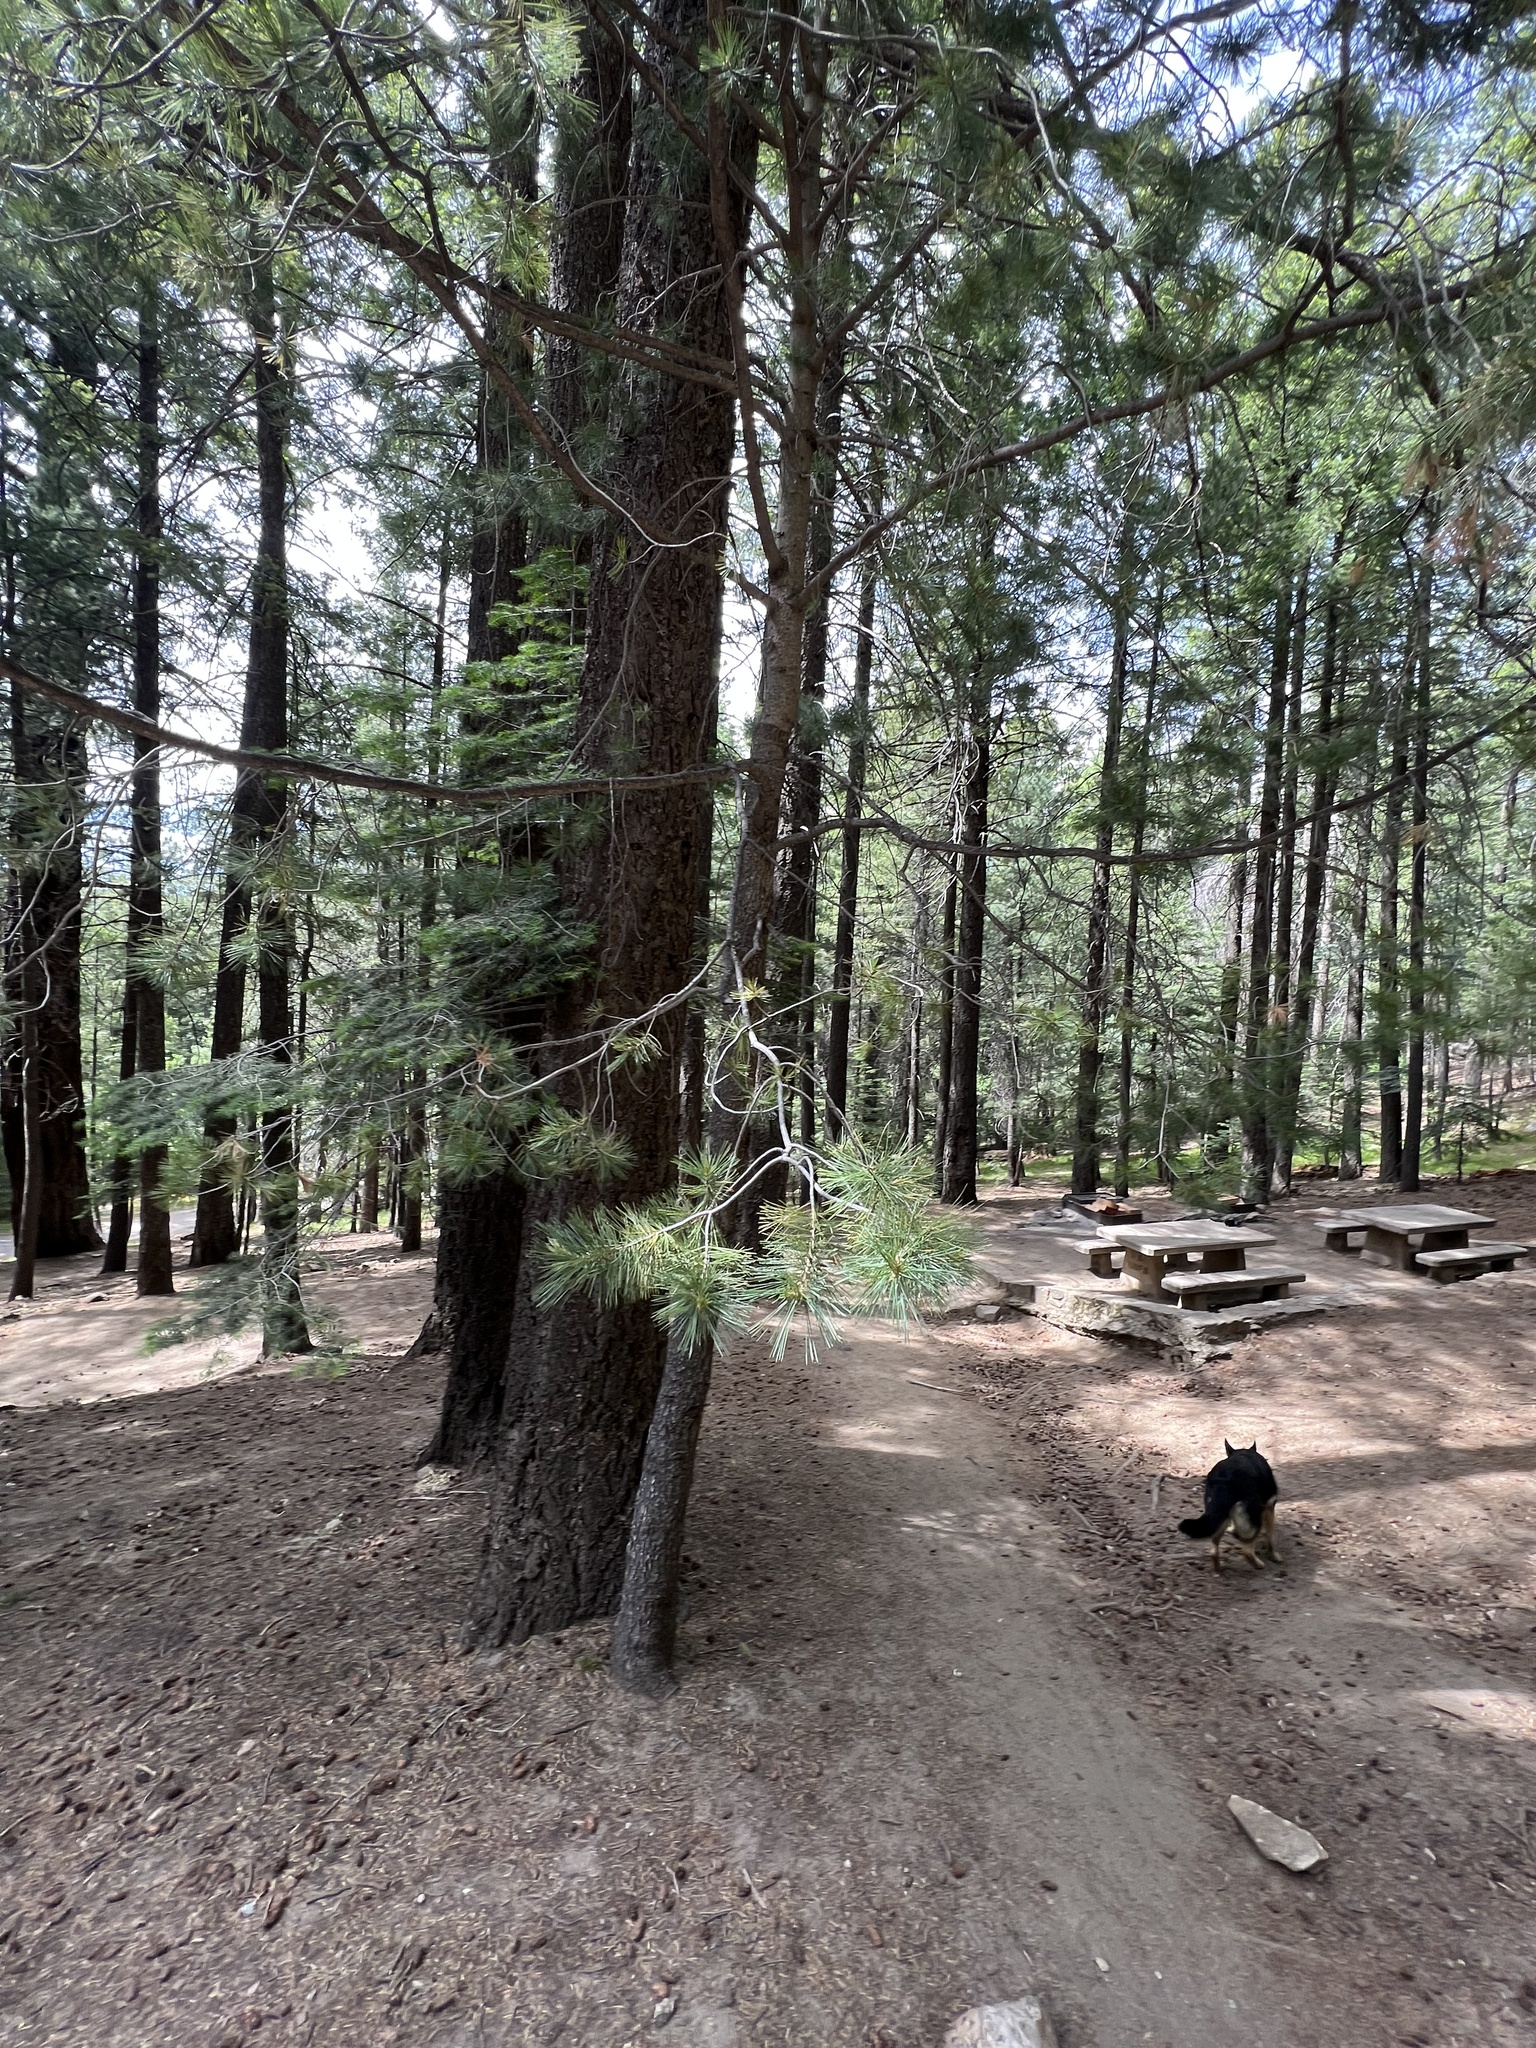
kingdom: Plantae
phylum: Tracheophyta
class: Pinopsida
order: Pinales
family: Pinaceae
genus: Pinus
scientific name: Pinus ponderosa
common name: Western yellow-pine
